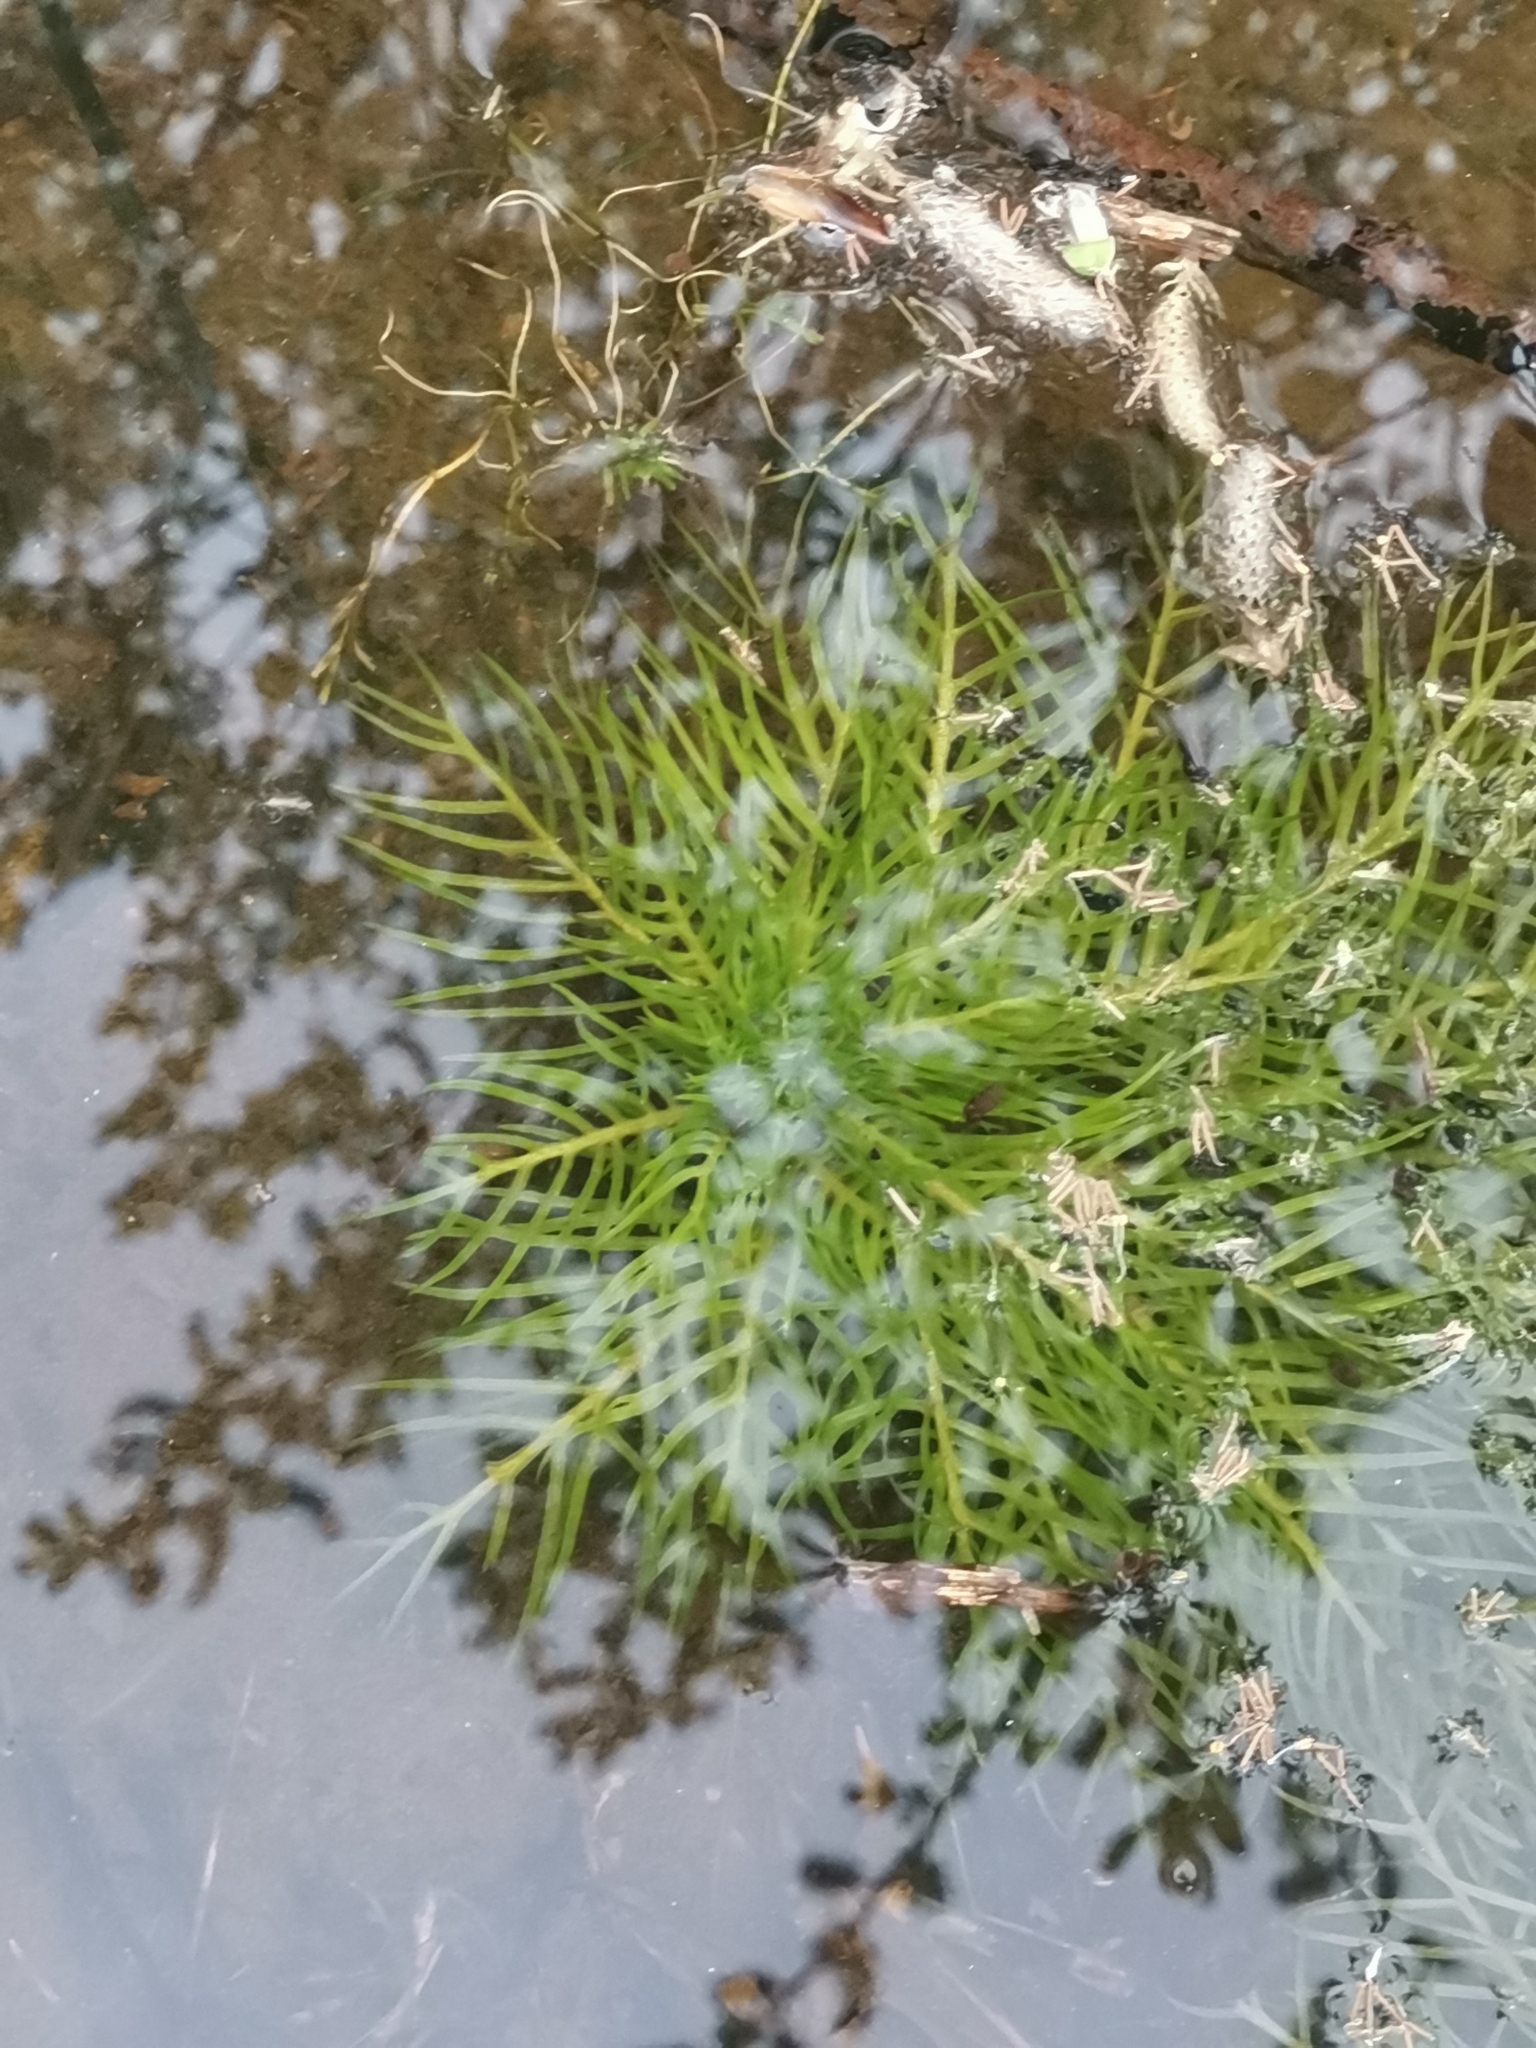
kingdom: Plantae
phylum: Tracheophyta
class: Magnoliopsida
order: Ericales
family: Primulaceae
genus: Hottonia
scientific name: Hottonia palustris
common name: Water-violet
